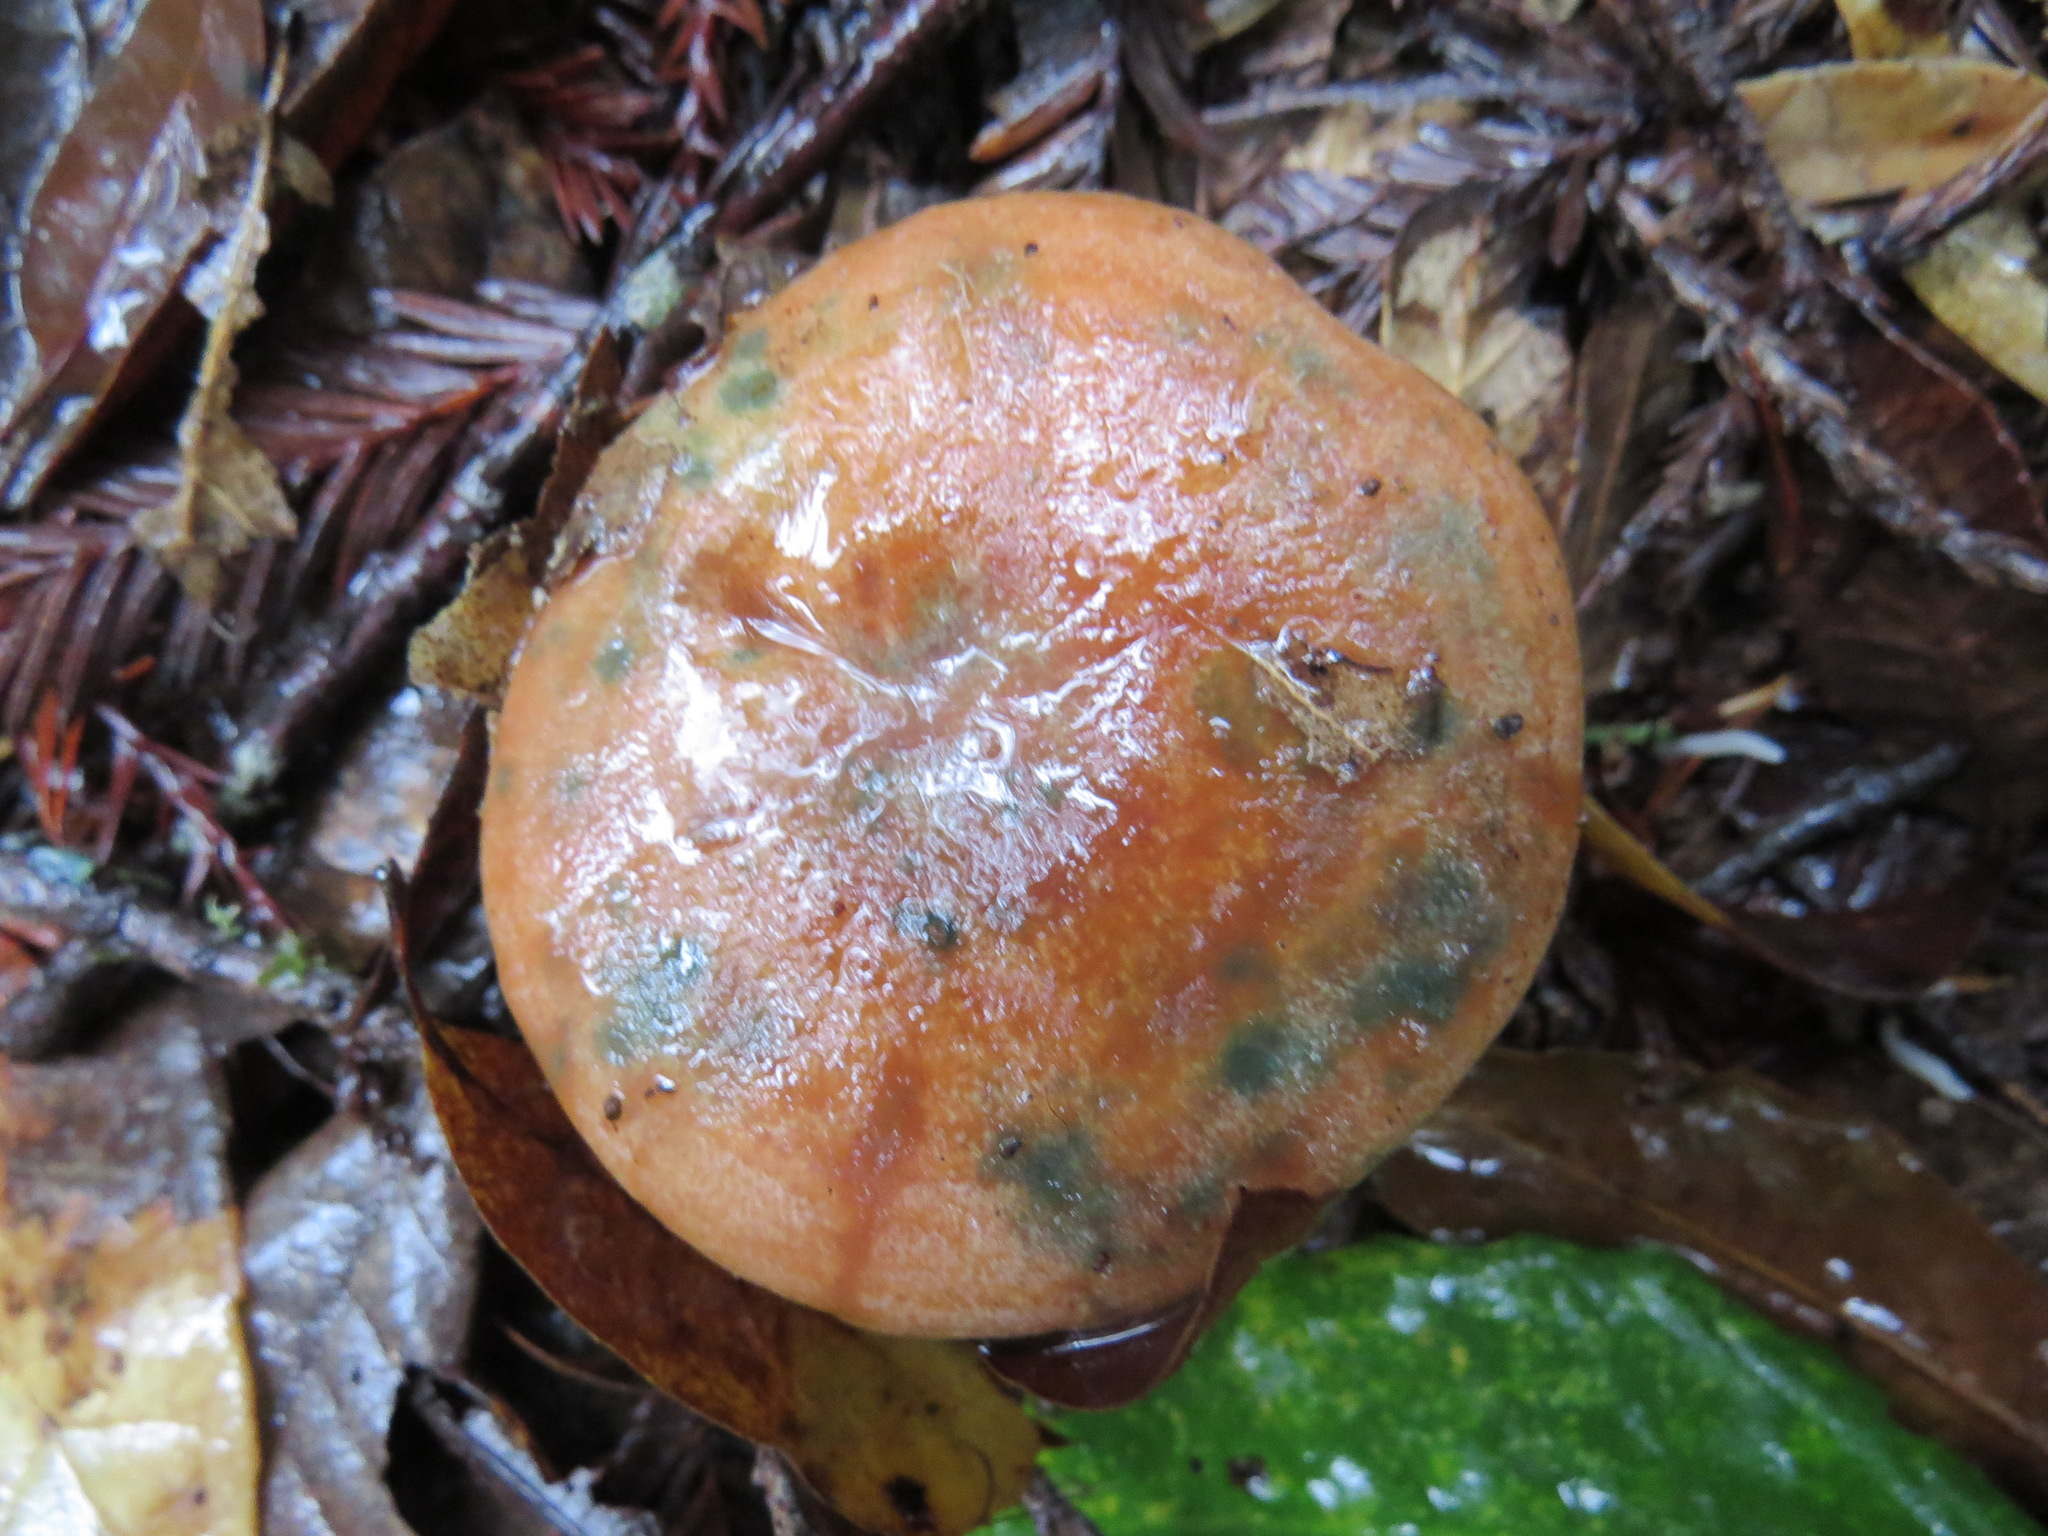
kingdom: Fungi
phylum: Basidiomycota
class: Agaricomycetes
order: Russulales
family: Russulaceae
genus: Lactarius
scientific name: Lactarius rubrilacteus
